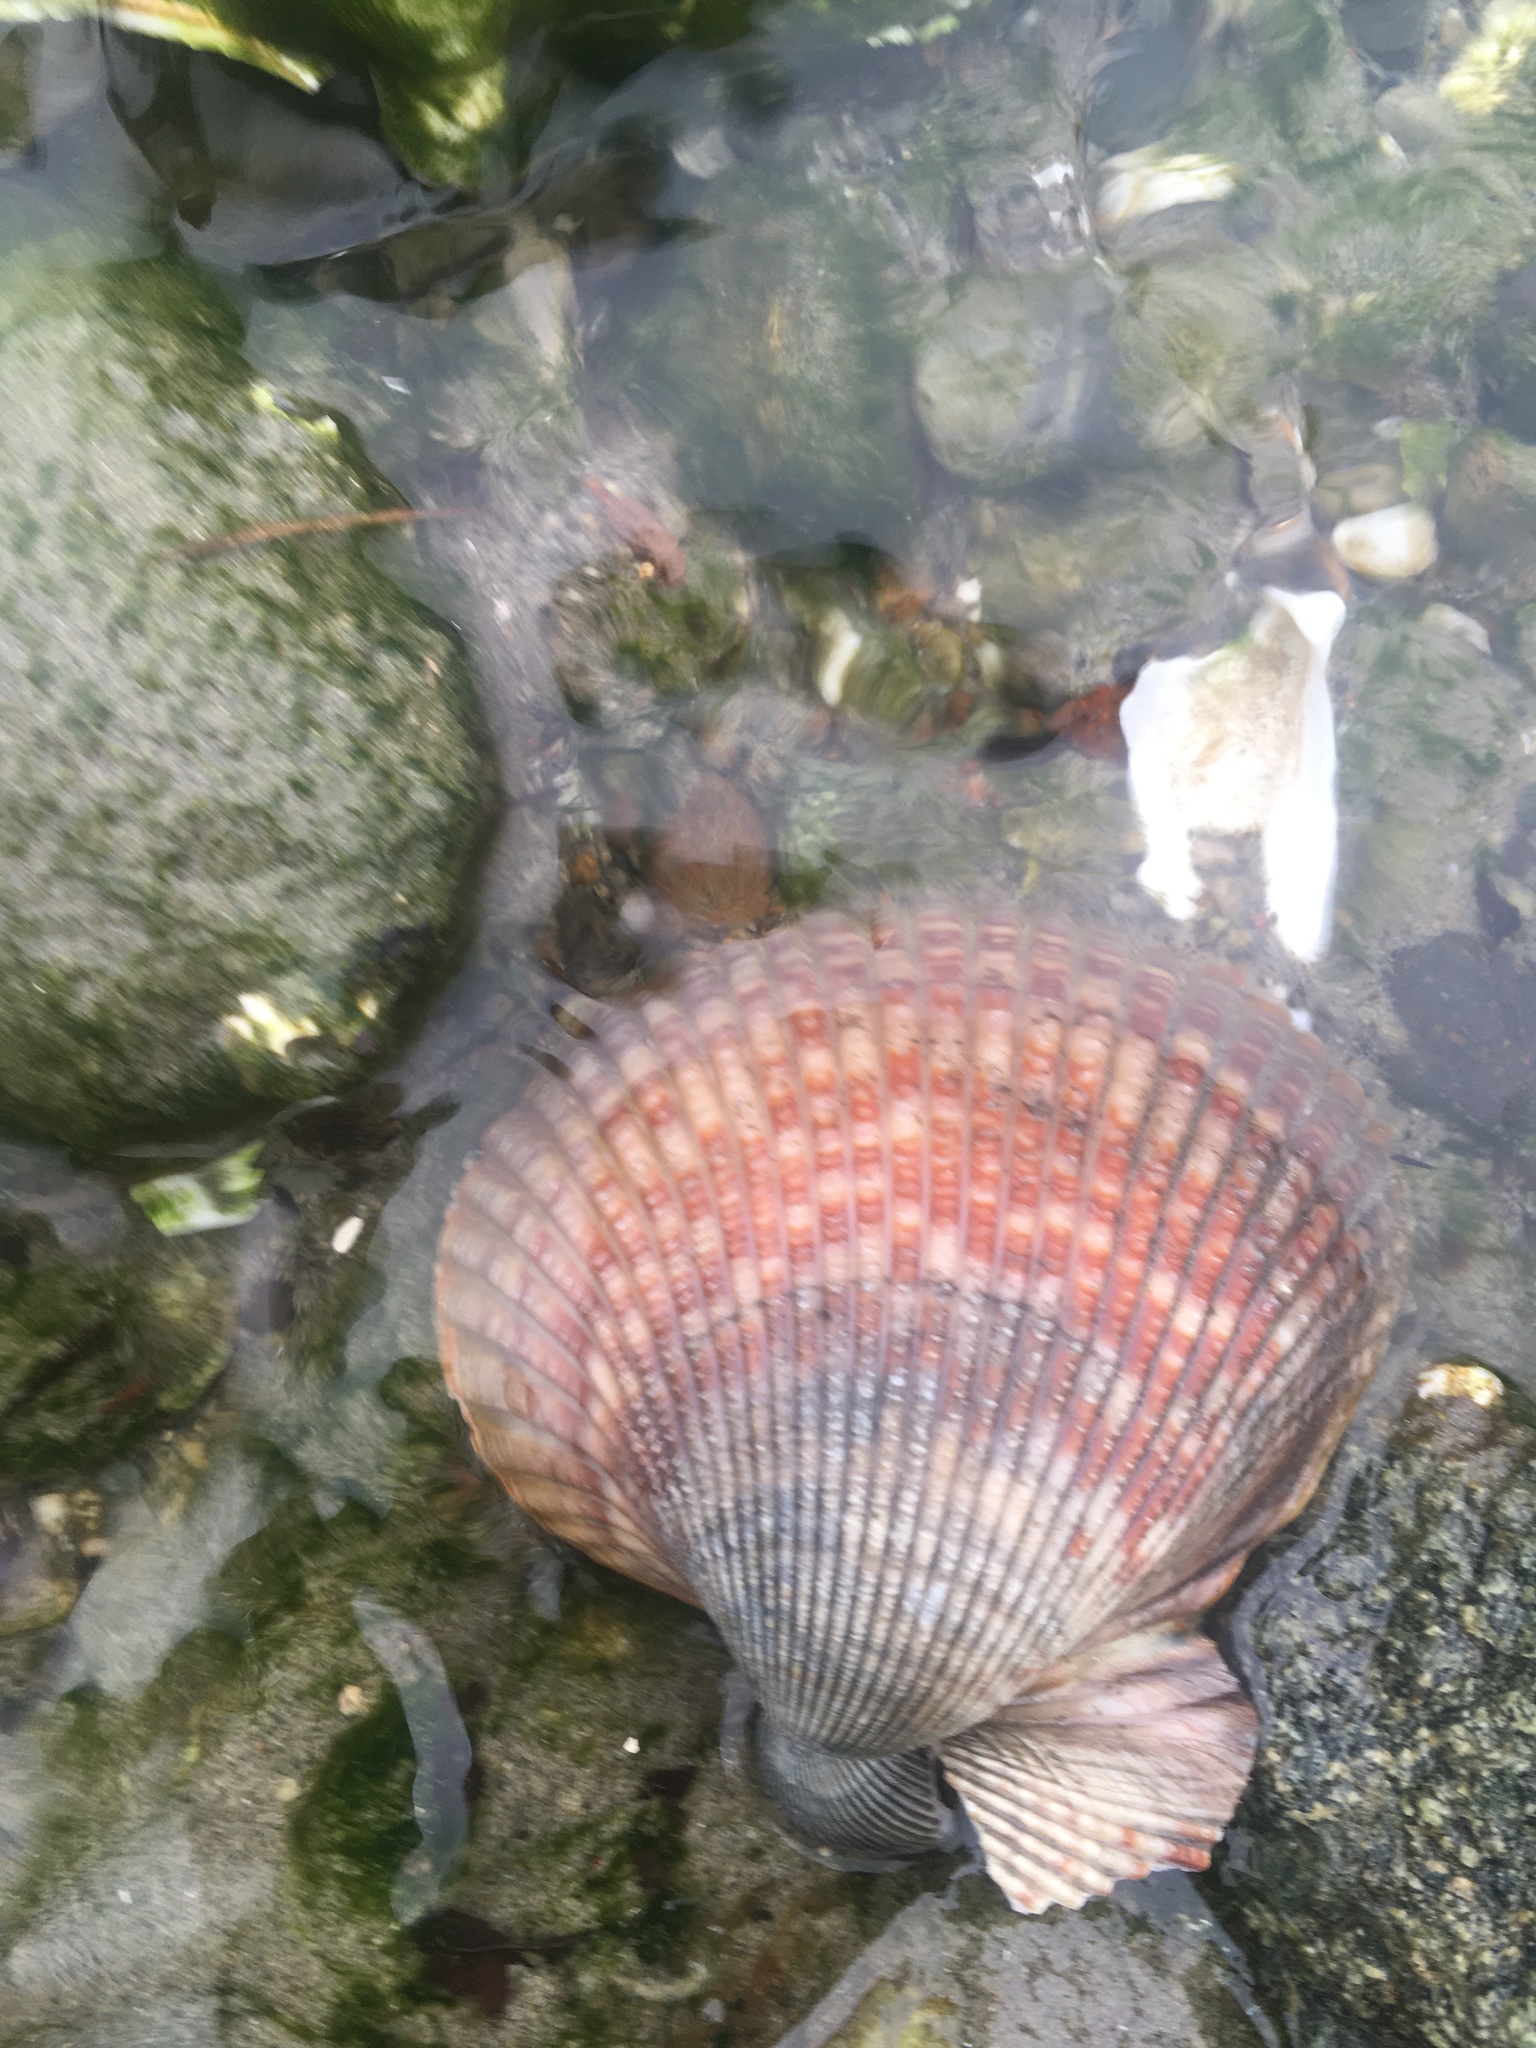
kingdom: Animalia
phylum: Mollusca
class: Bivalvia
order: Cardiida
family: Cardiidae
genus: Clinocardium
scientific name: Clinocardium nuttallii
